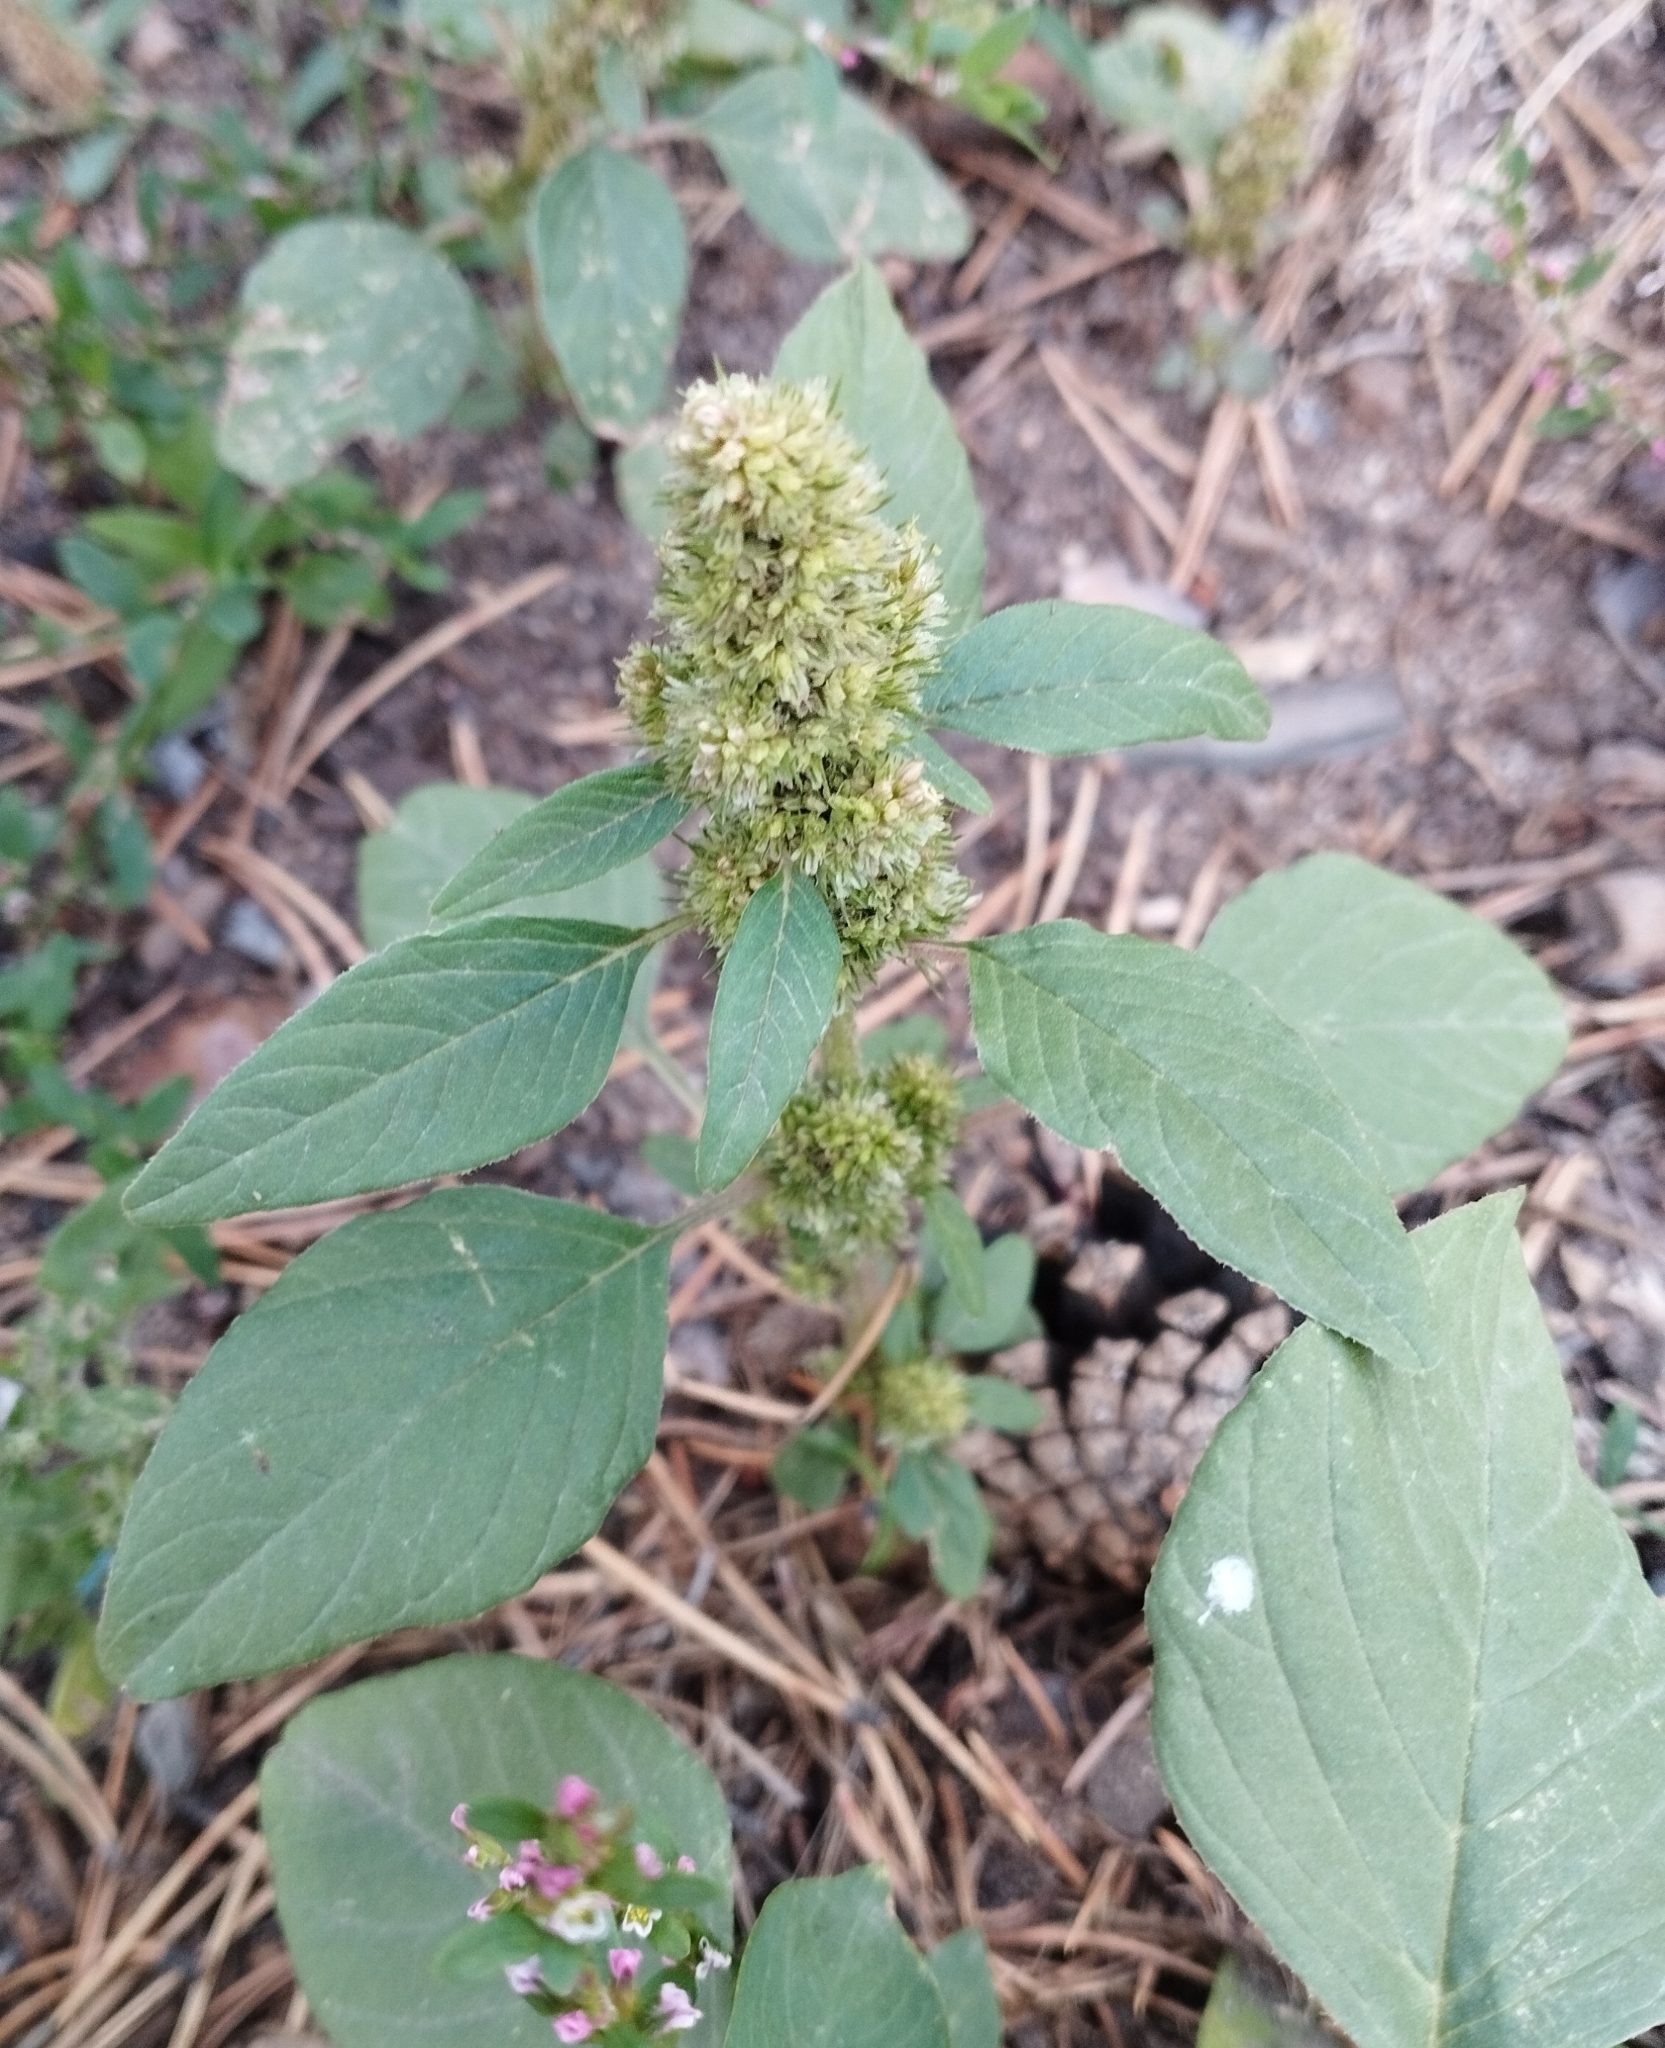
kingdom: Plantae
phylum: Tracheophyta
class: Magnoliopsida
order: Caryophyllales
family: Amaranthaceae
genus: Amaranthus
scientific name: Amaranthus retroflexus
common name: Redroot amaranth
